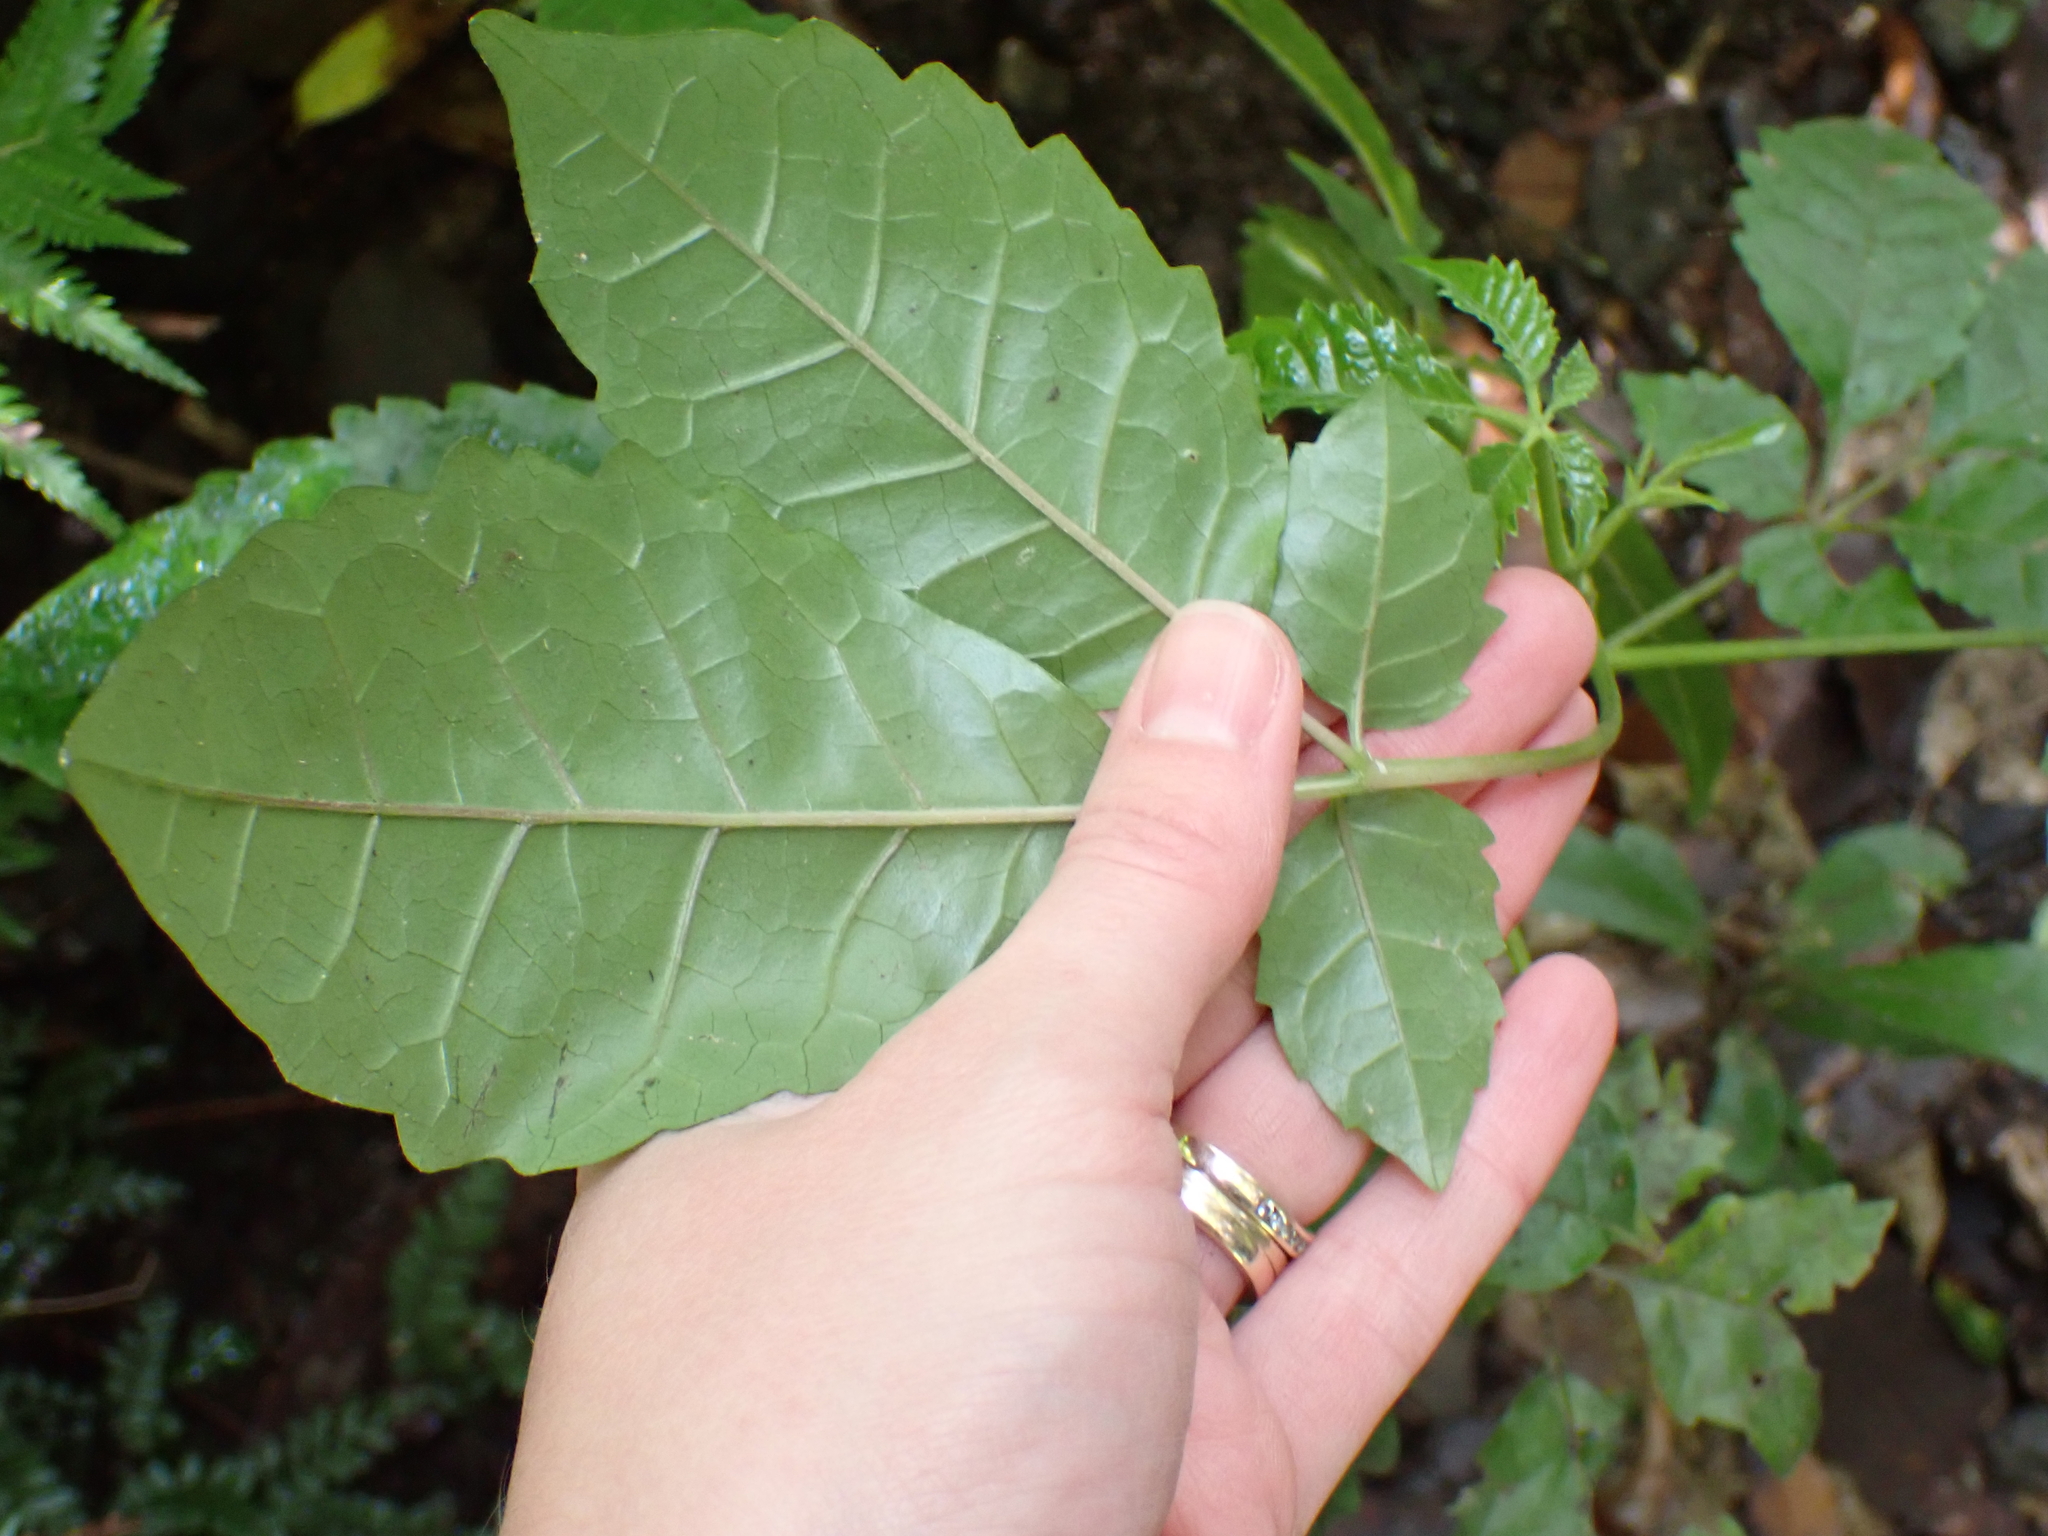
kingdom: Plantae
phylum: Tracheophyta
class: Magnoliopsida
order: Lamiales
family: Lamiaceae
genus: Vitex
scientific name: Vitex lucens
